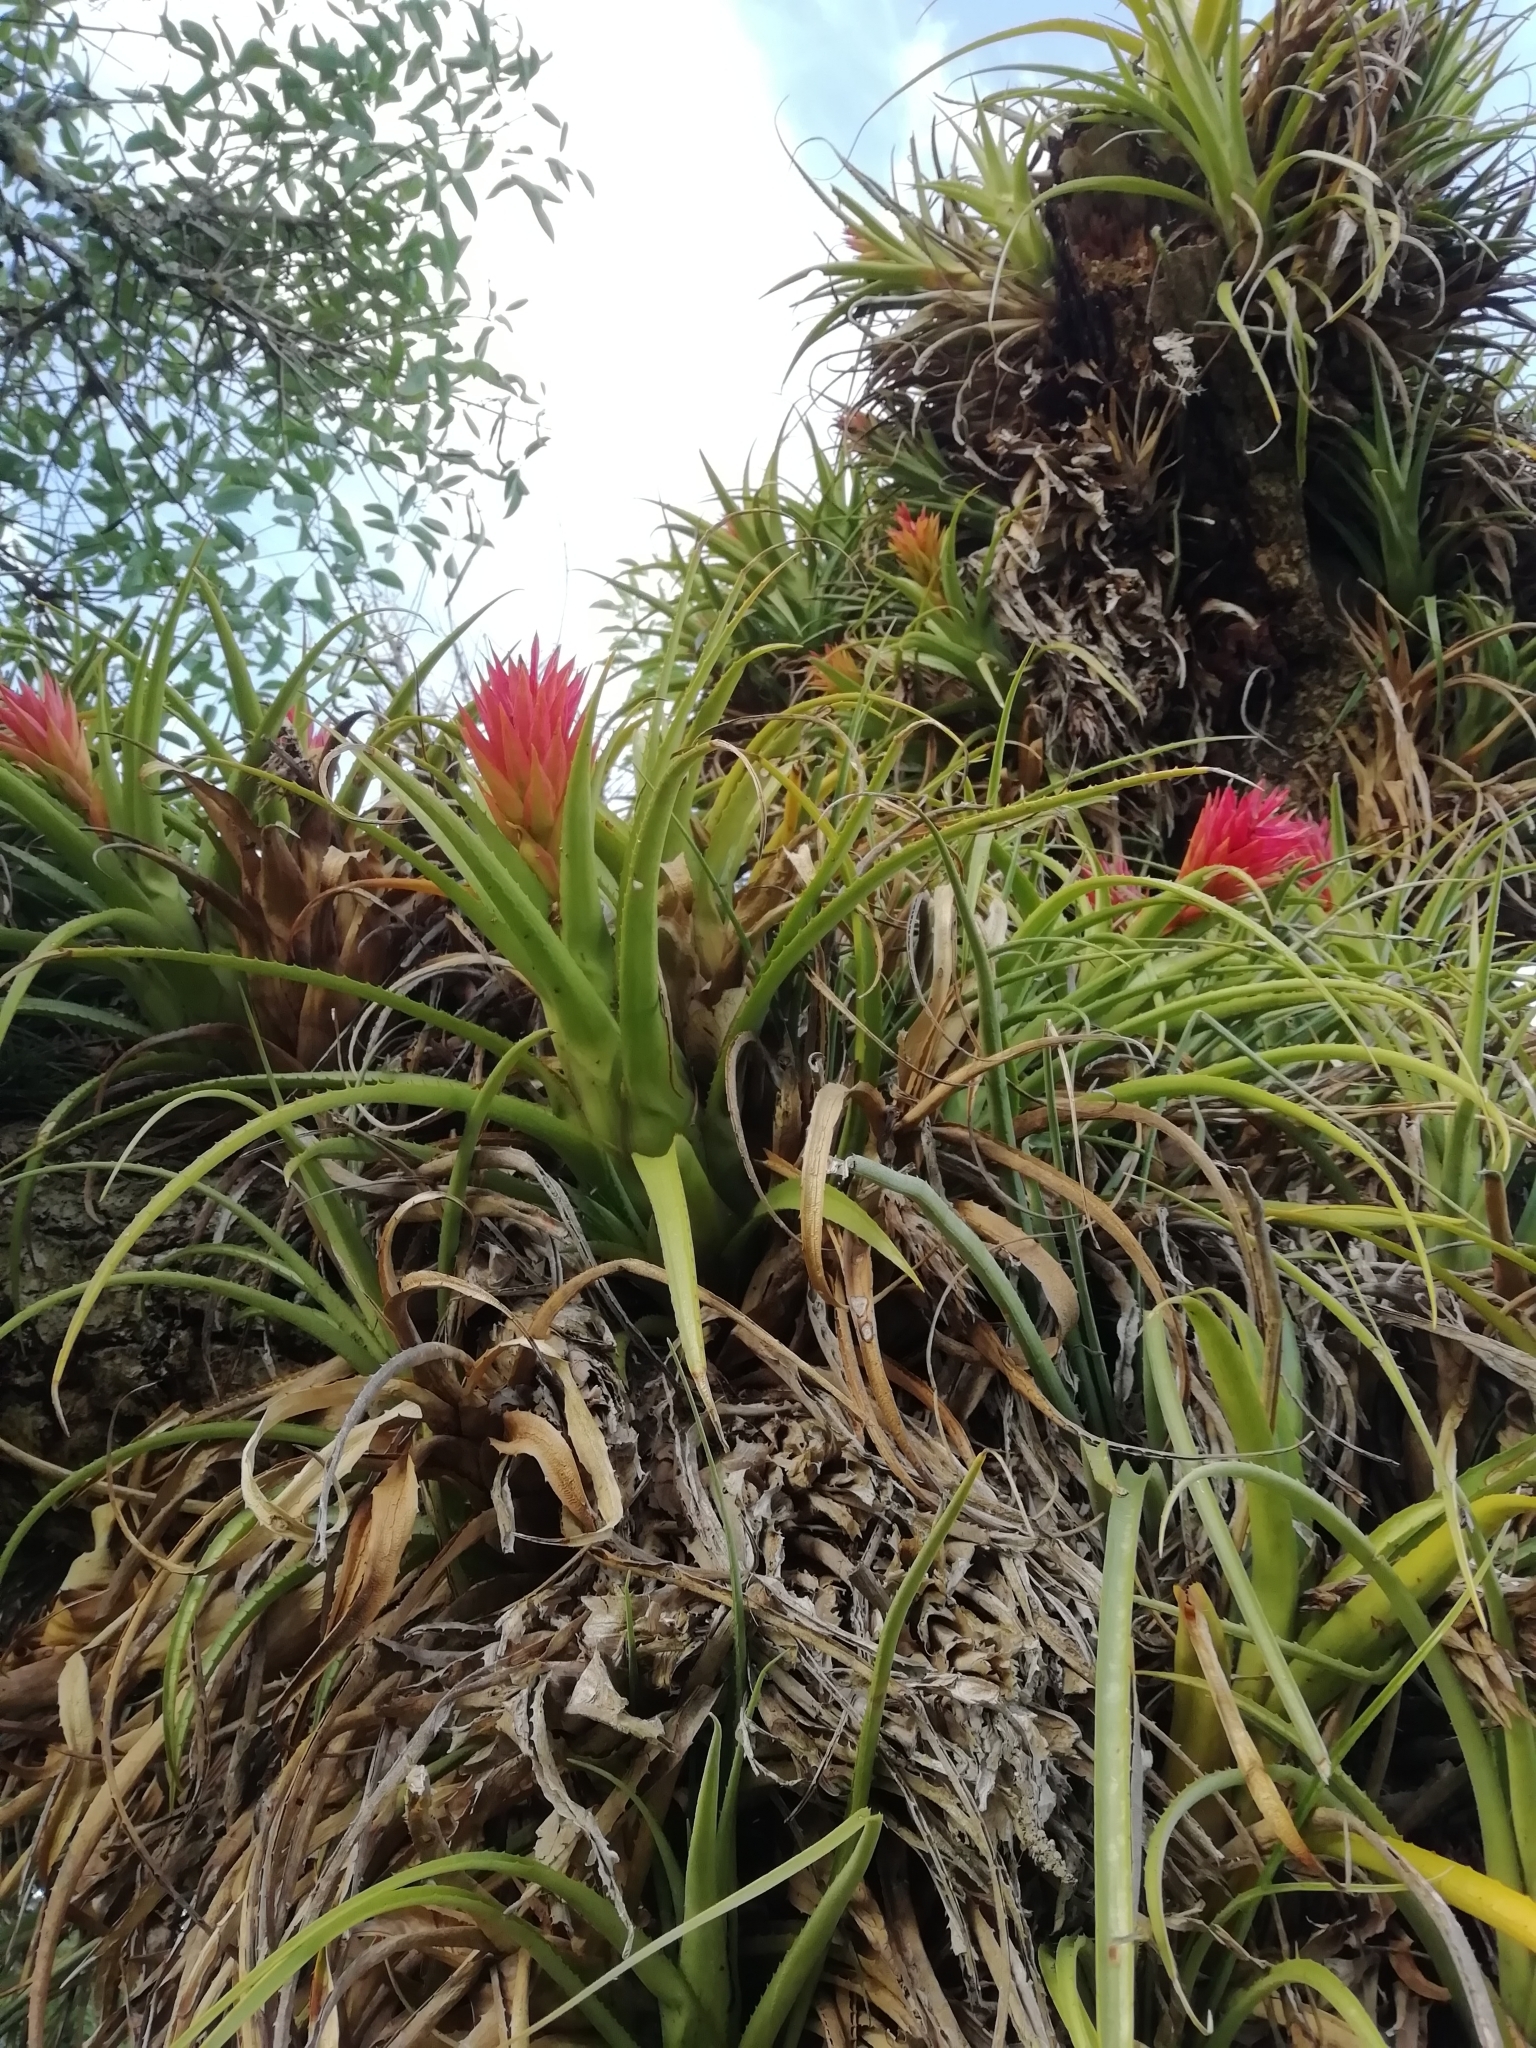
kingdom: Plantae
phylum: Tracheophyta
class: Liliopsida
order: Poales
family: Bromeliaceae
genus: Aechmea
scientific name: Aechmea recurvata
